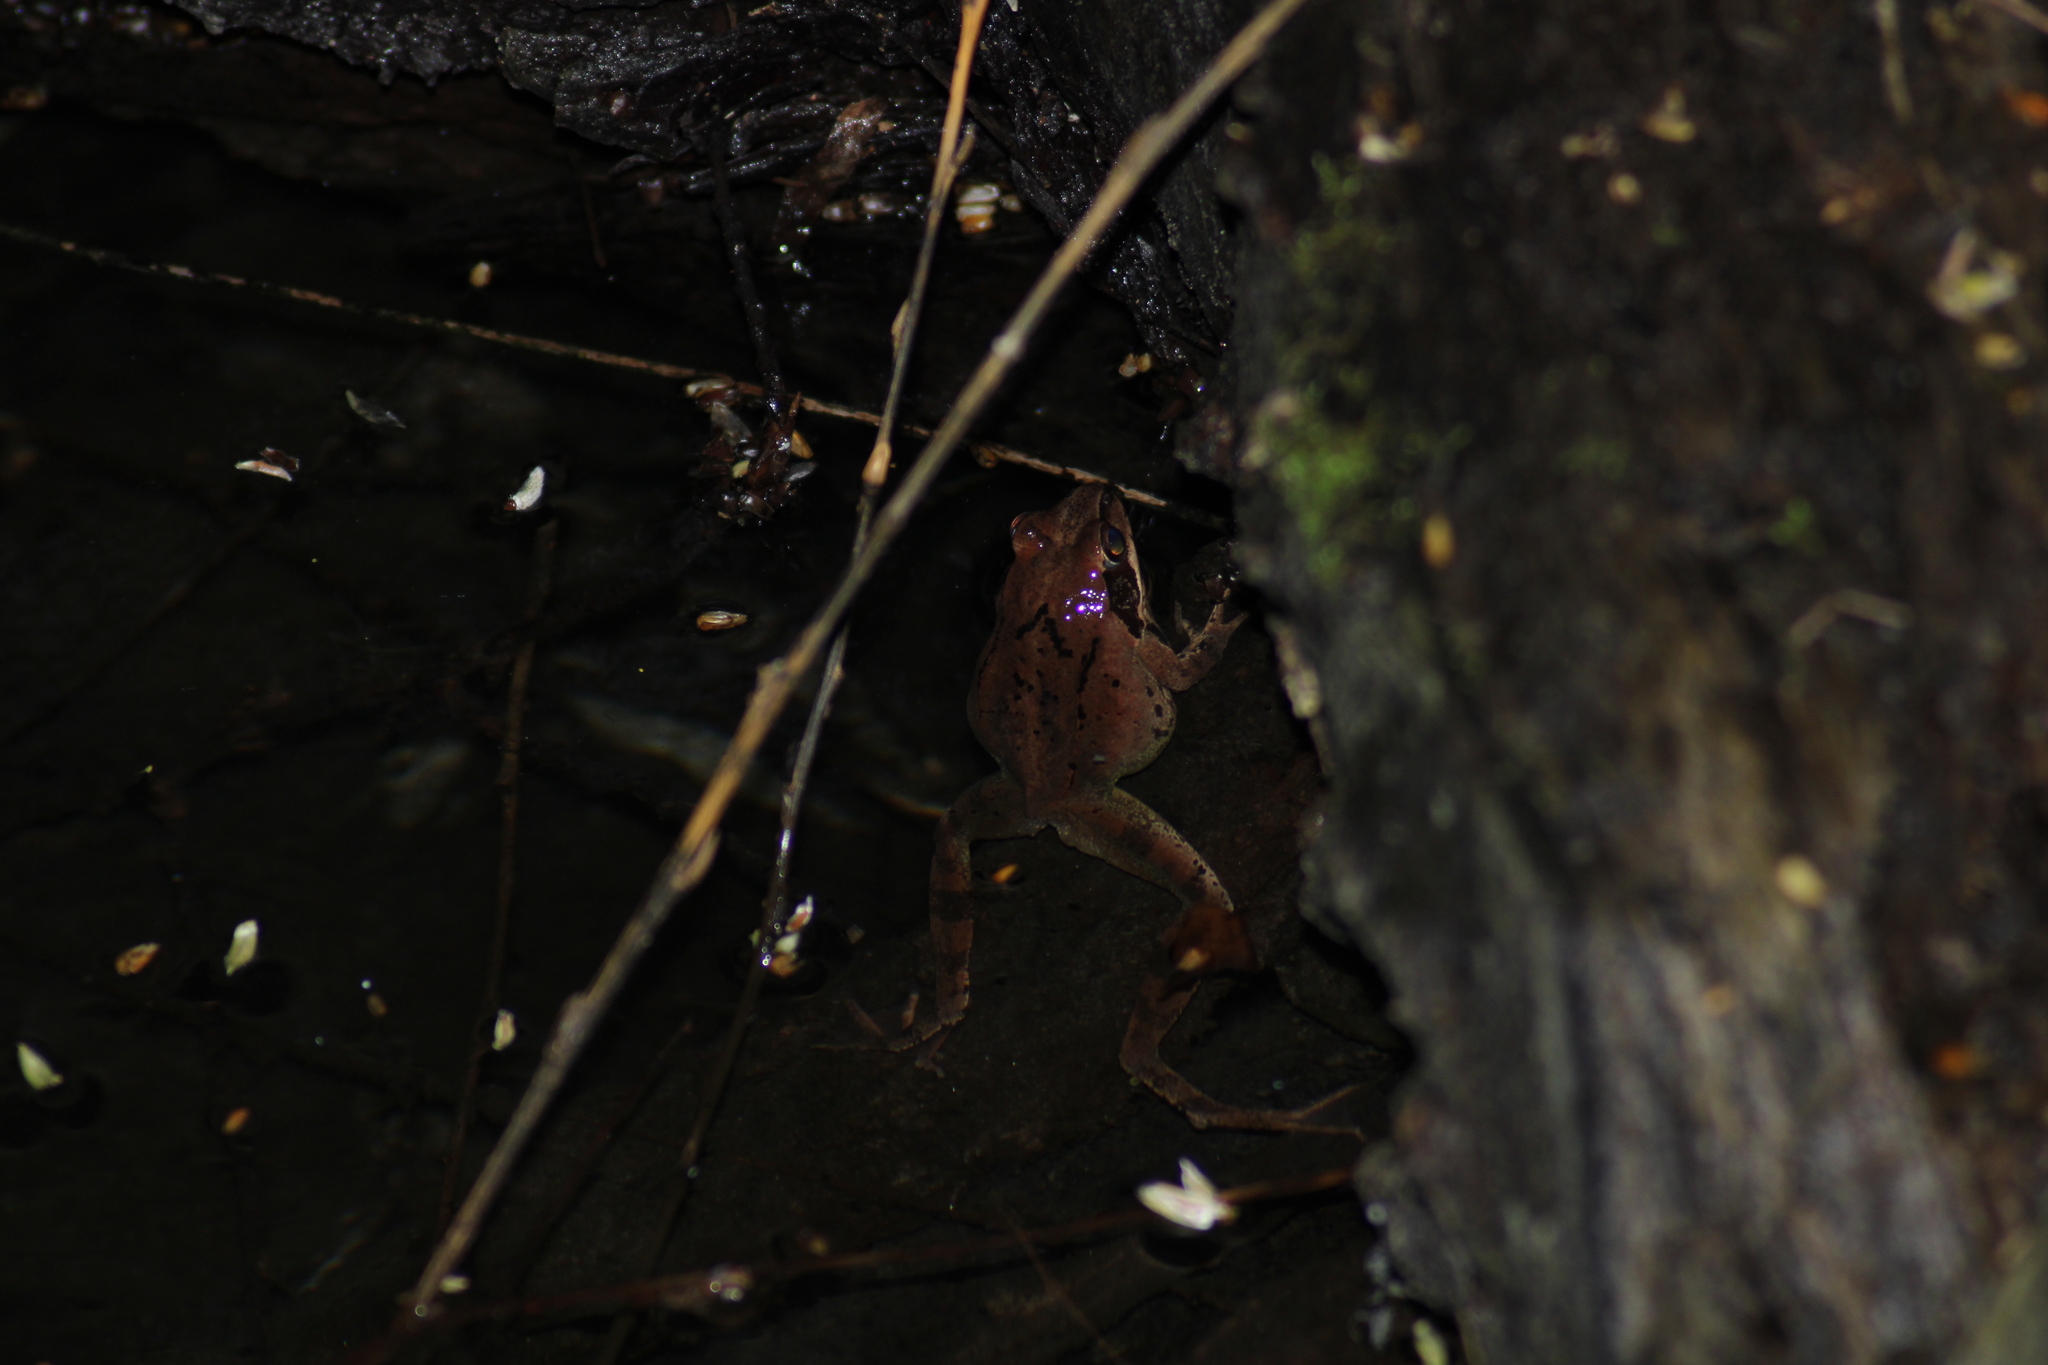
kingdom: Animalia
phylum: Chordata
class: Amphibia
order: Anura
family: Ranidae
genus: Rana
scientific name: Rana dalmatina
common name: Agile frog
